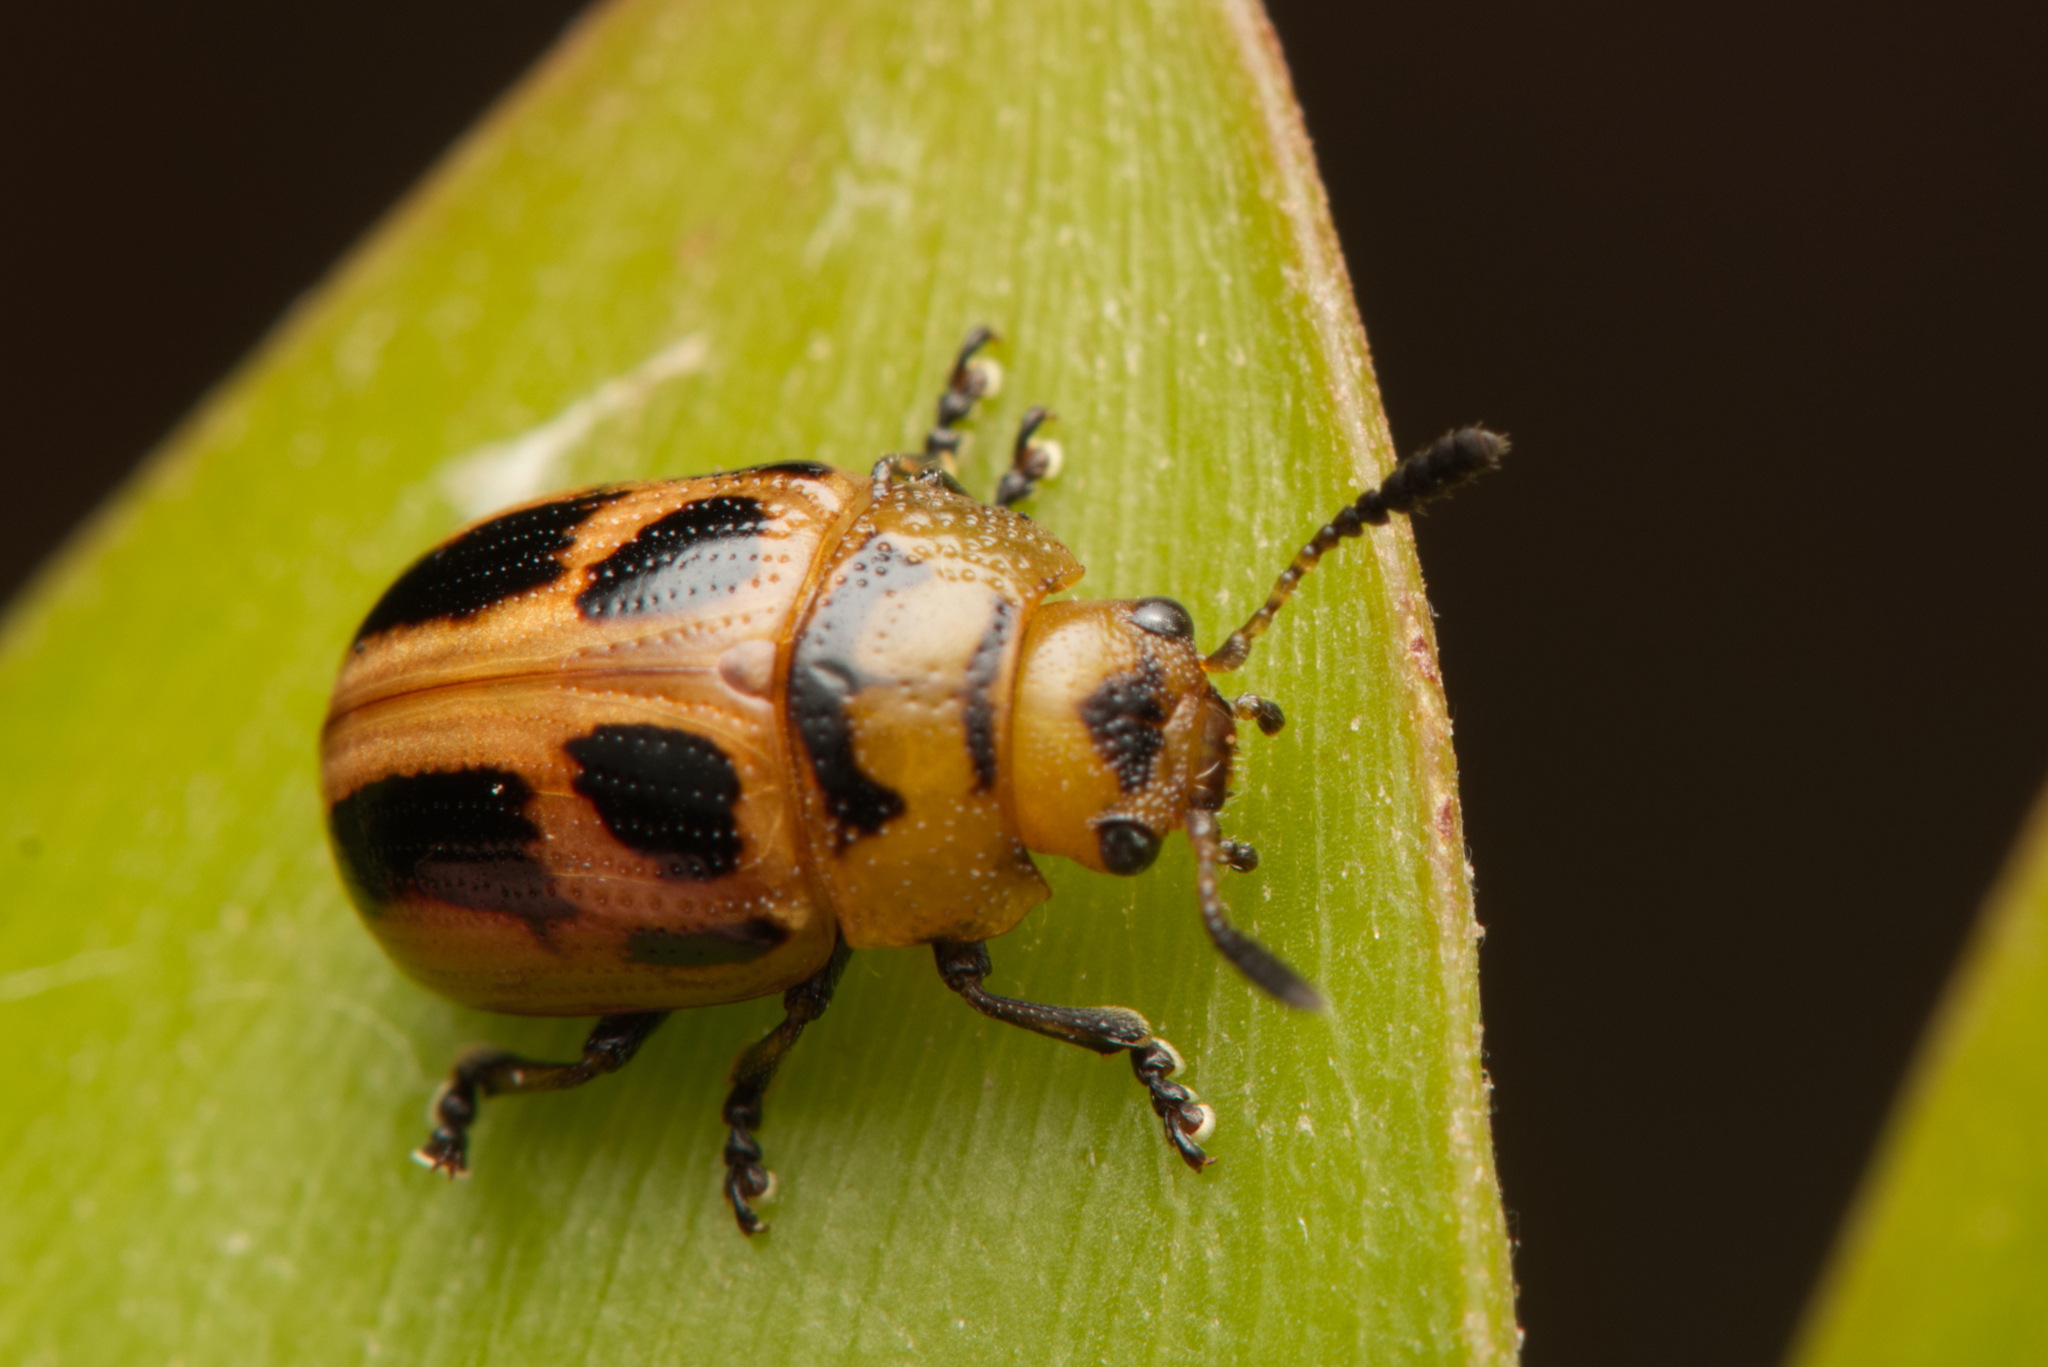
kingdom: Animalia
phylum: Arthropoda
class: Insecta
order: Coleoptera
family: Chrysomelidae
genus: Calomela
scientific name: Calomela
